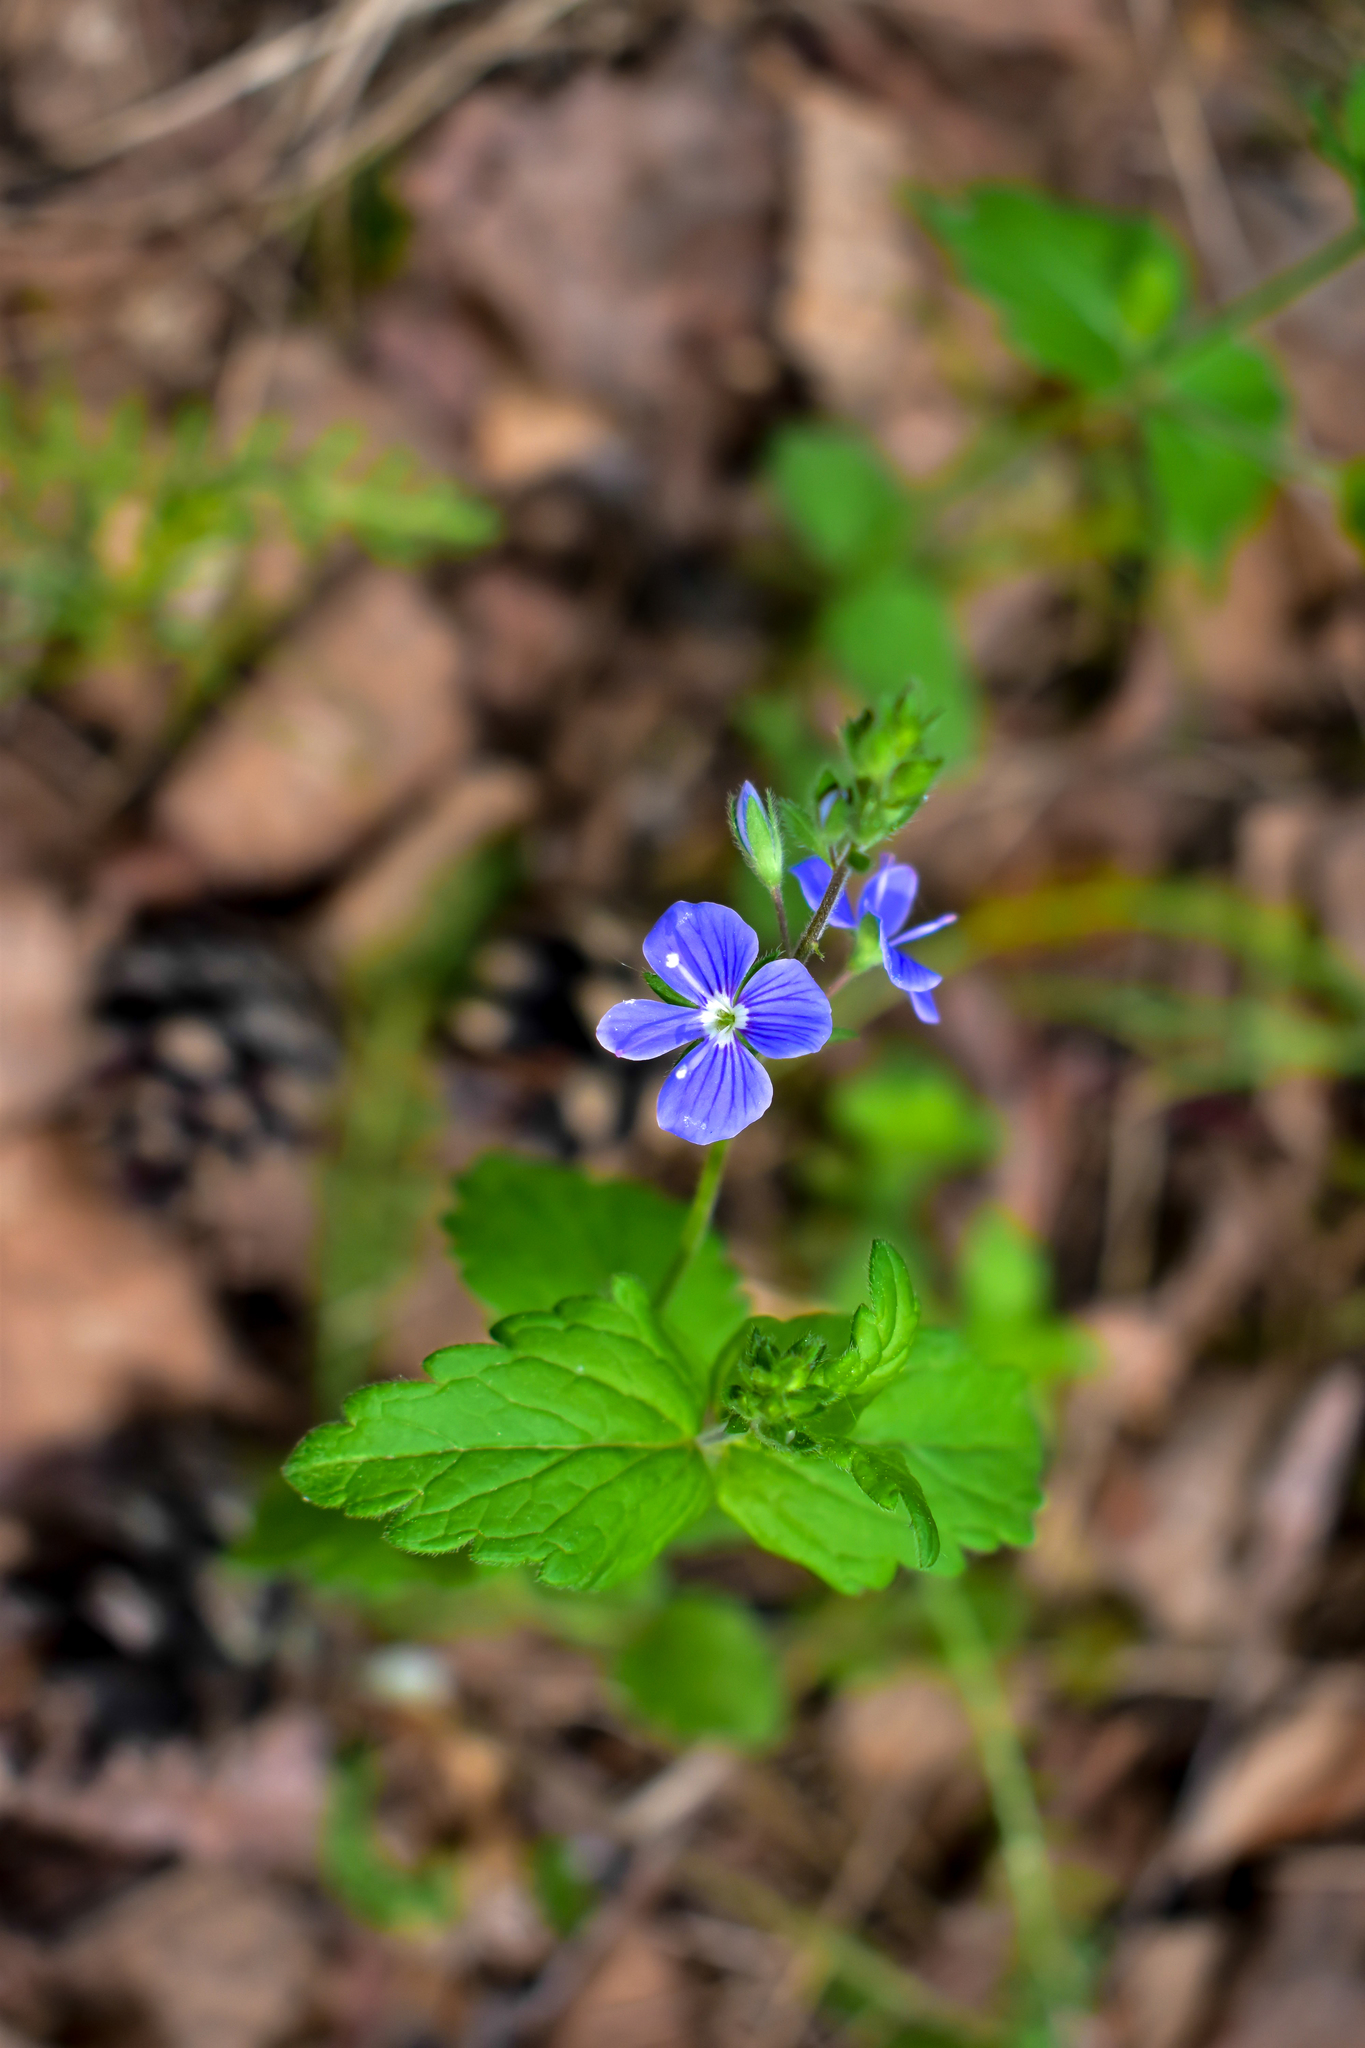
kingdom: Plantae
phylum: Tracheophyta
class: Magnoliopsida
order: Lamiales
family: Plantaginaceae
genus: Veronica
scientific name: Veronica chamaedrys
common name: Germander speedwell
